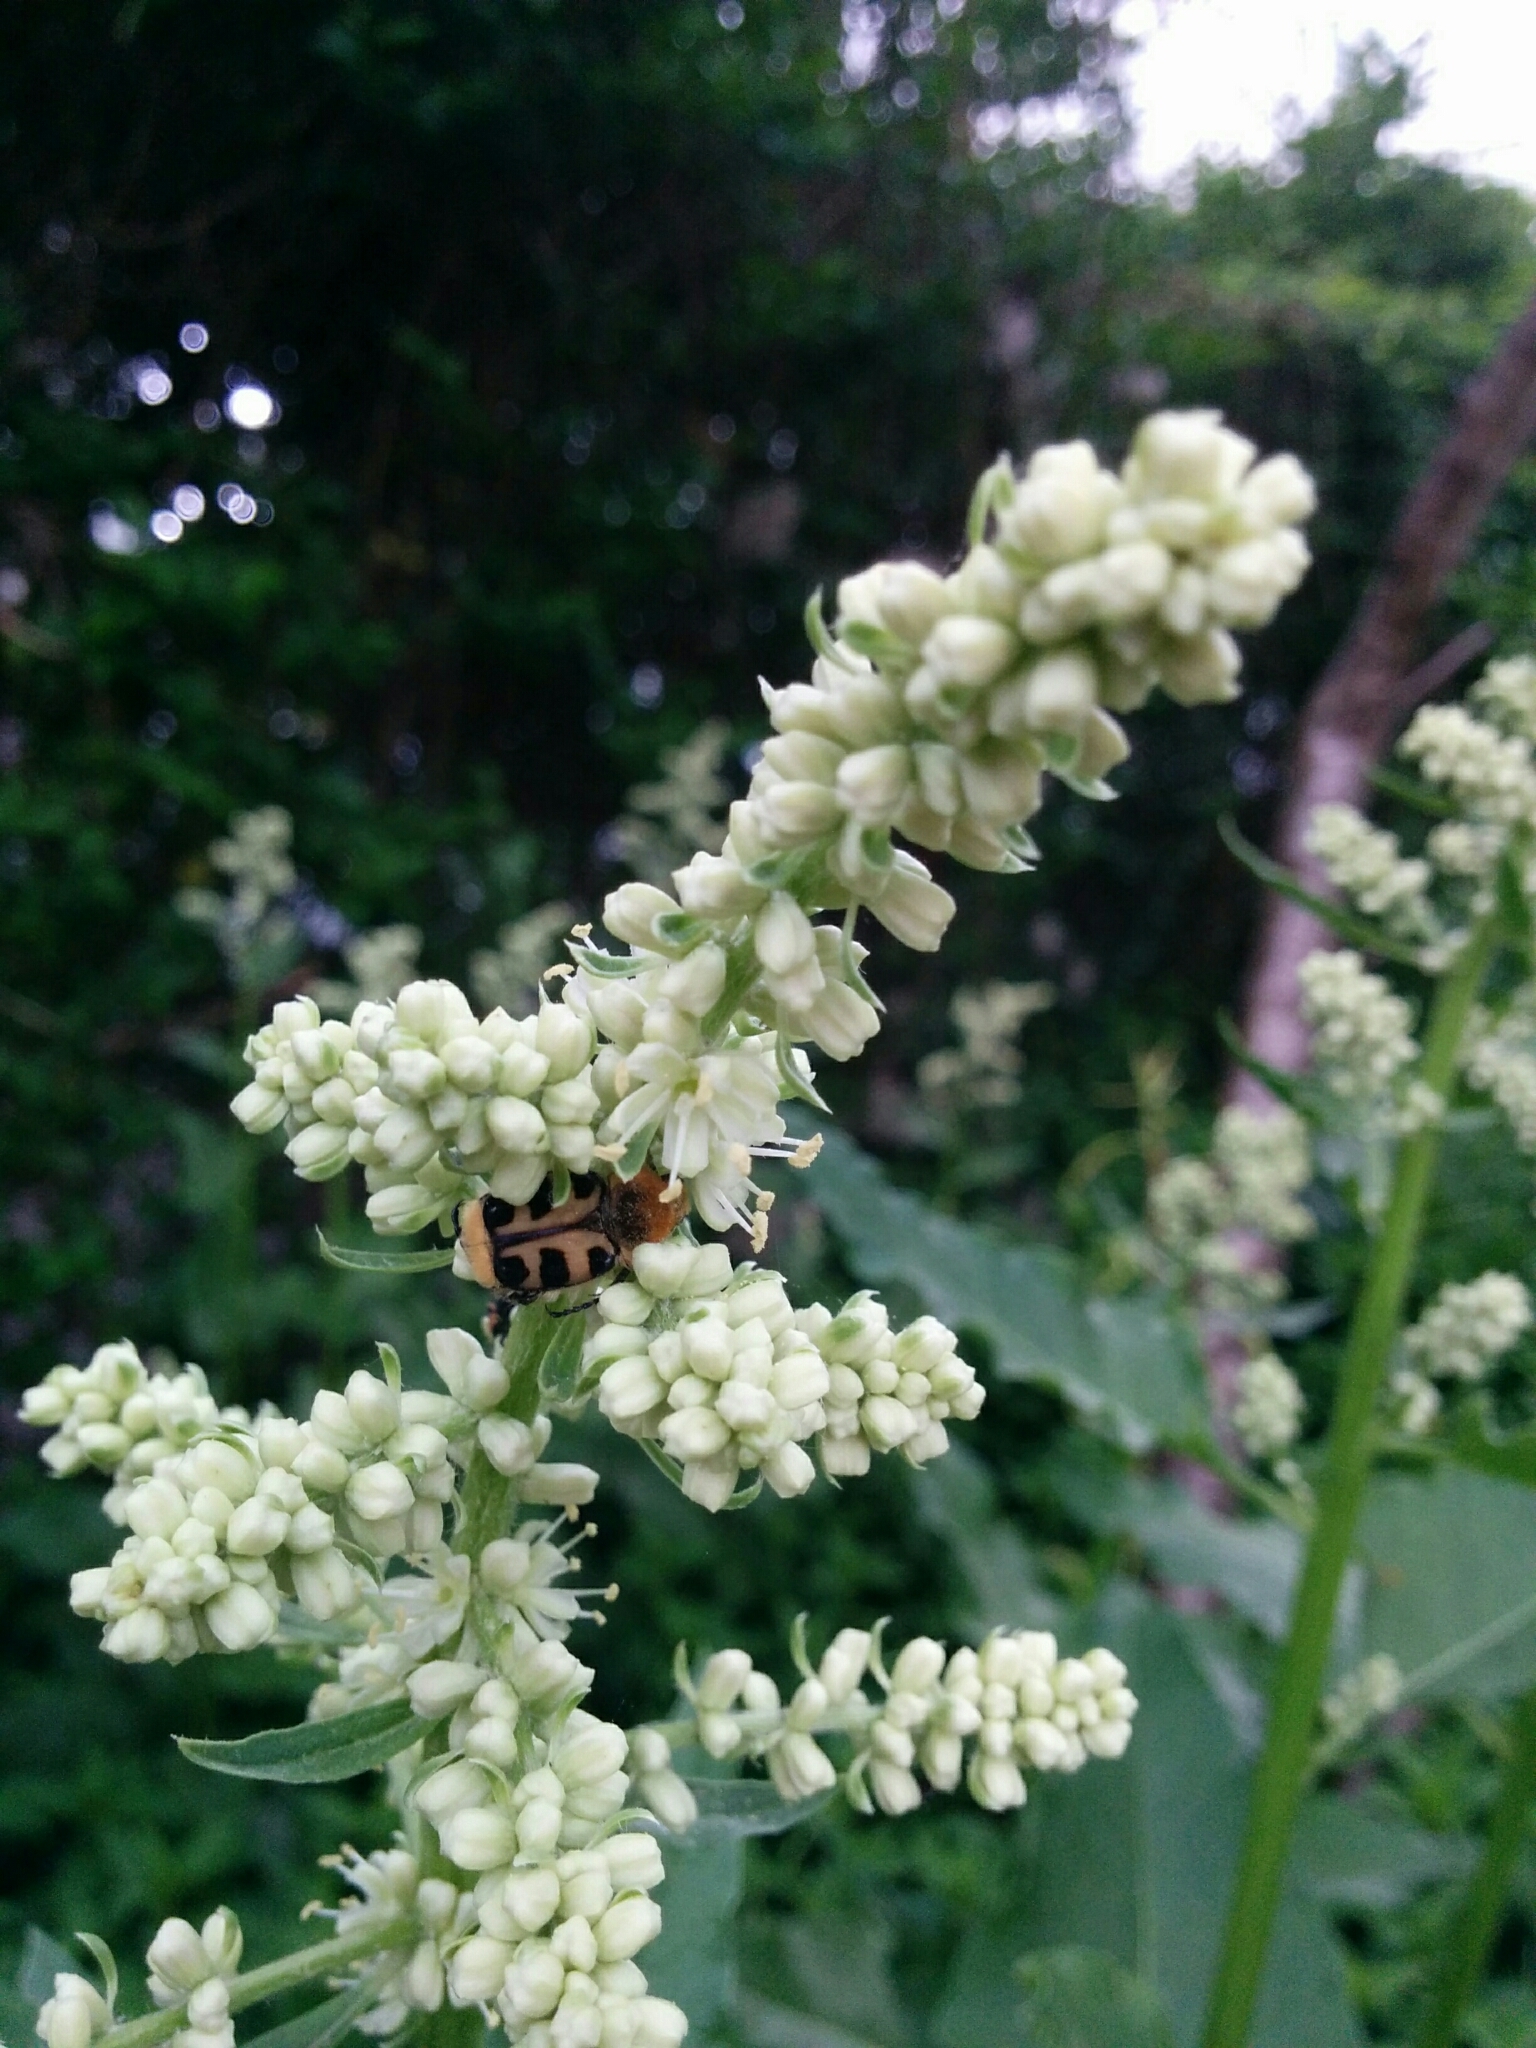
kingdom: Animalia
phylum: Arthropoda
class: Insecta
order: Coleoptera
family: Scarabaeidae
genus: Trichius
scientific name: Trichius gallicus
